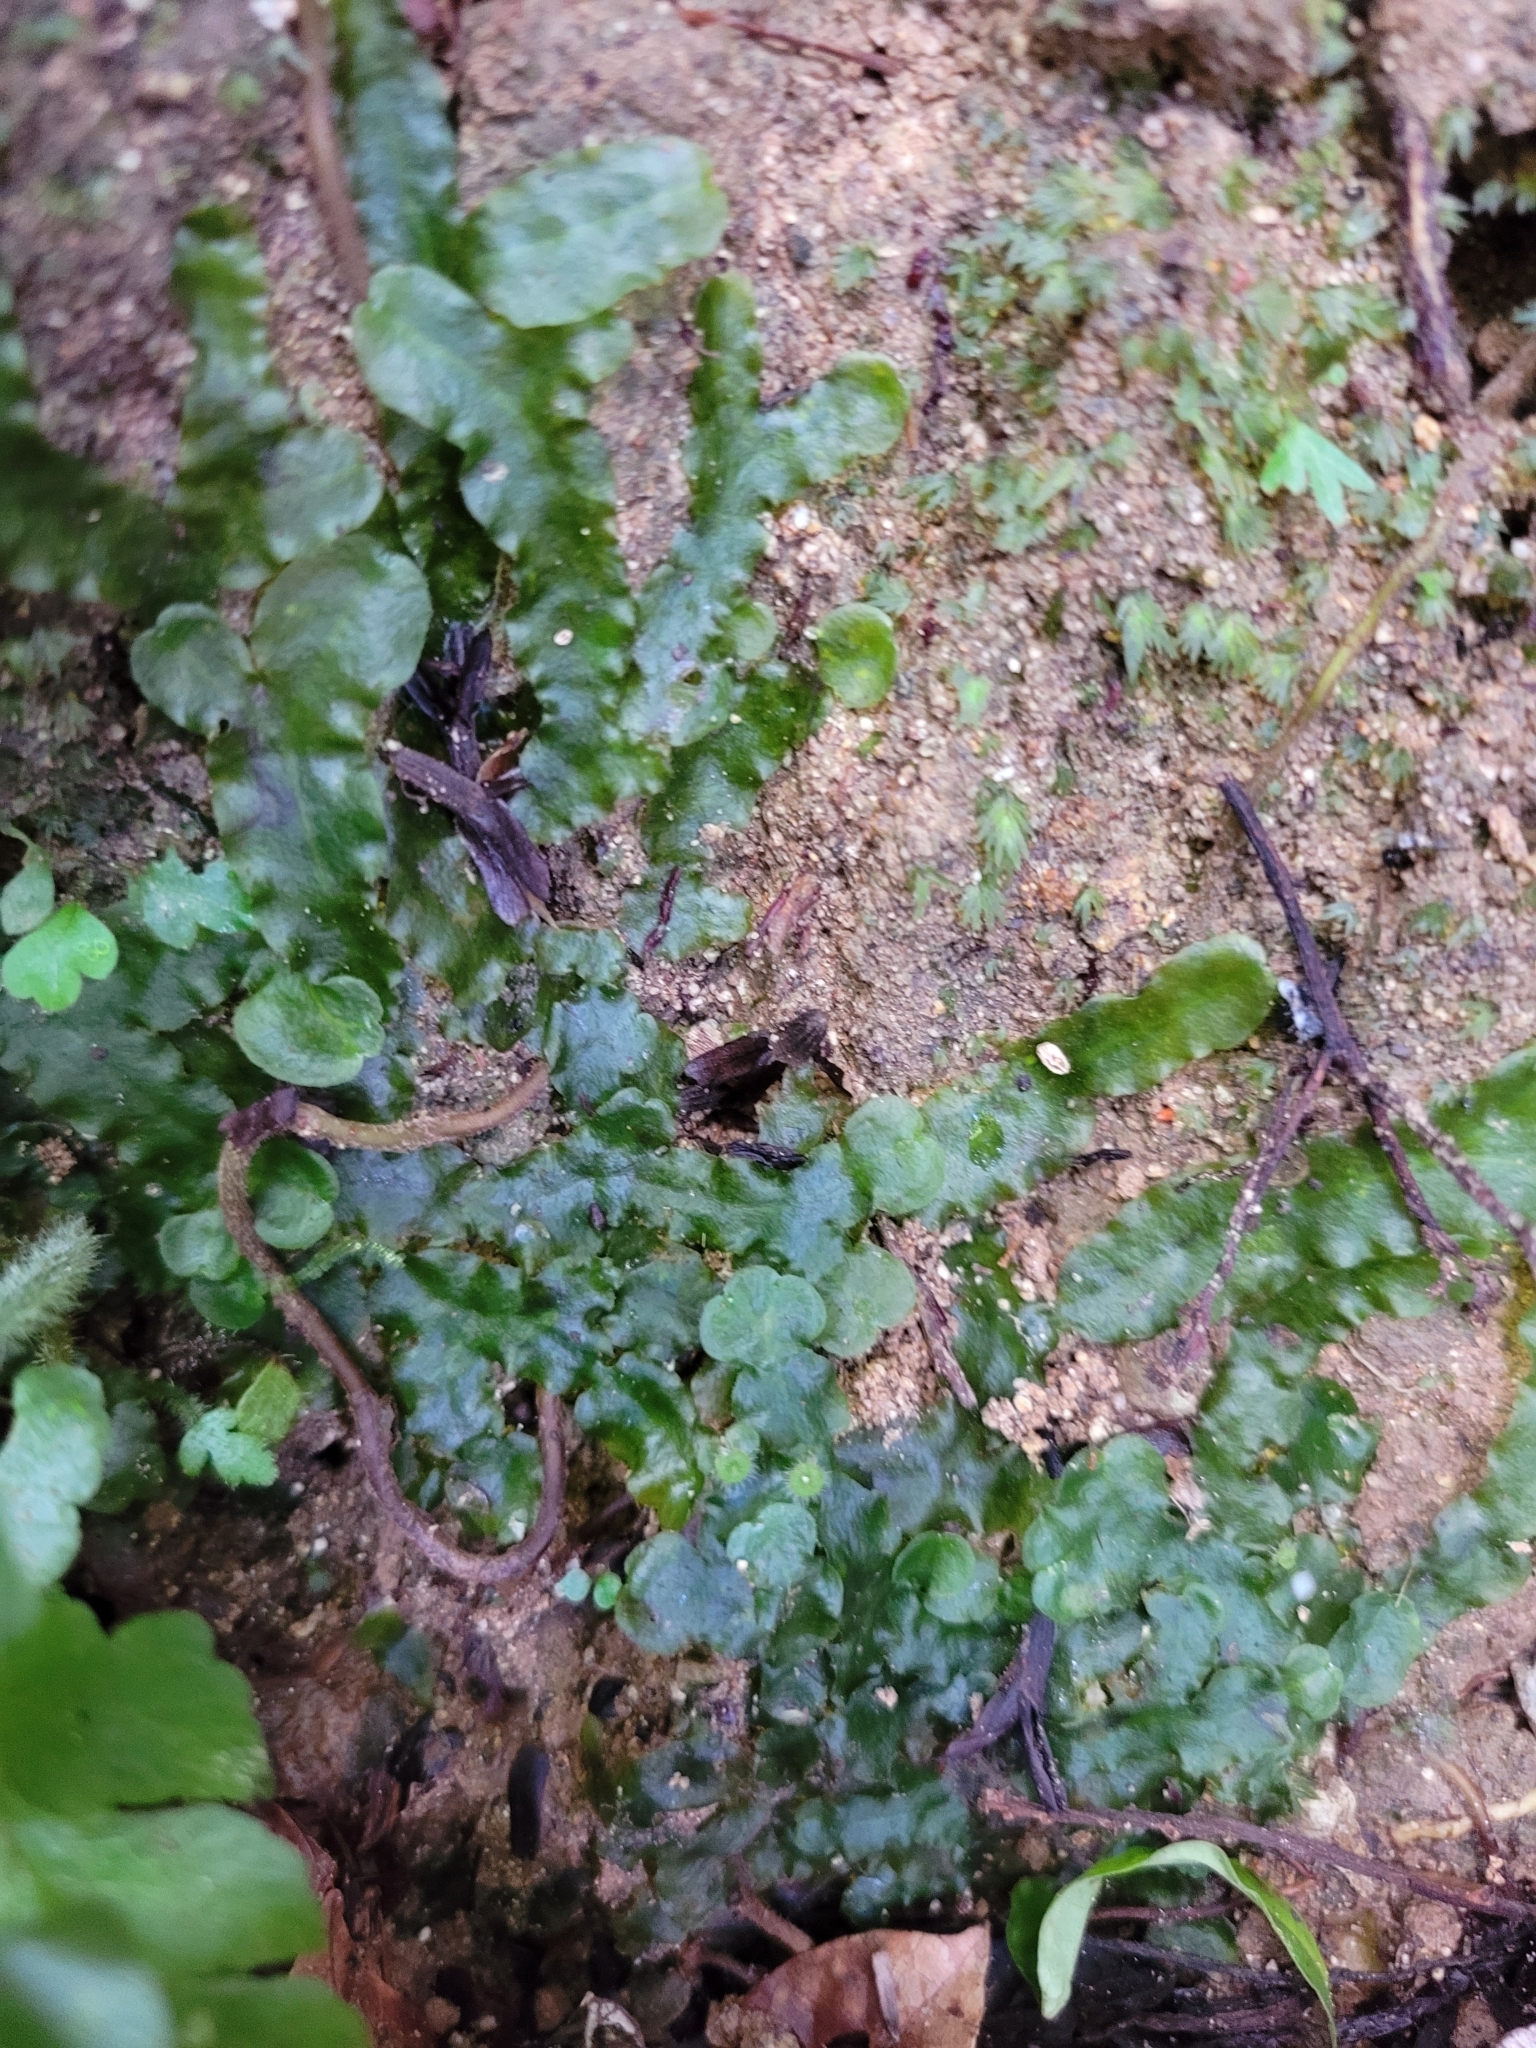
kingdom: Plantae
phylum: Marchantiophyta
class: Marchantiopsida
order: Marchantiales
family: Dumortieraceae
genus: Dumortiera
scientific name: Dumortiera hirsuta
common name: Dumortier's liverwort
